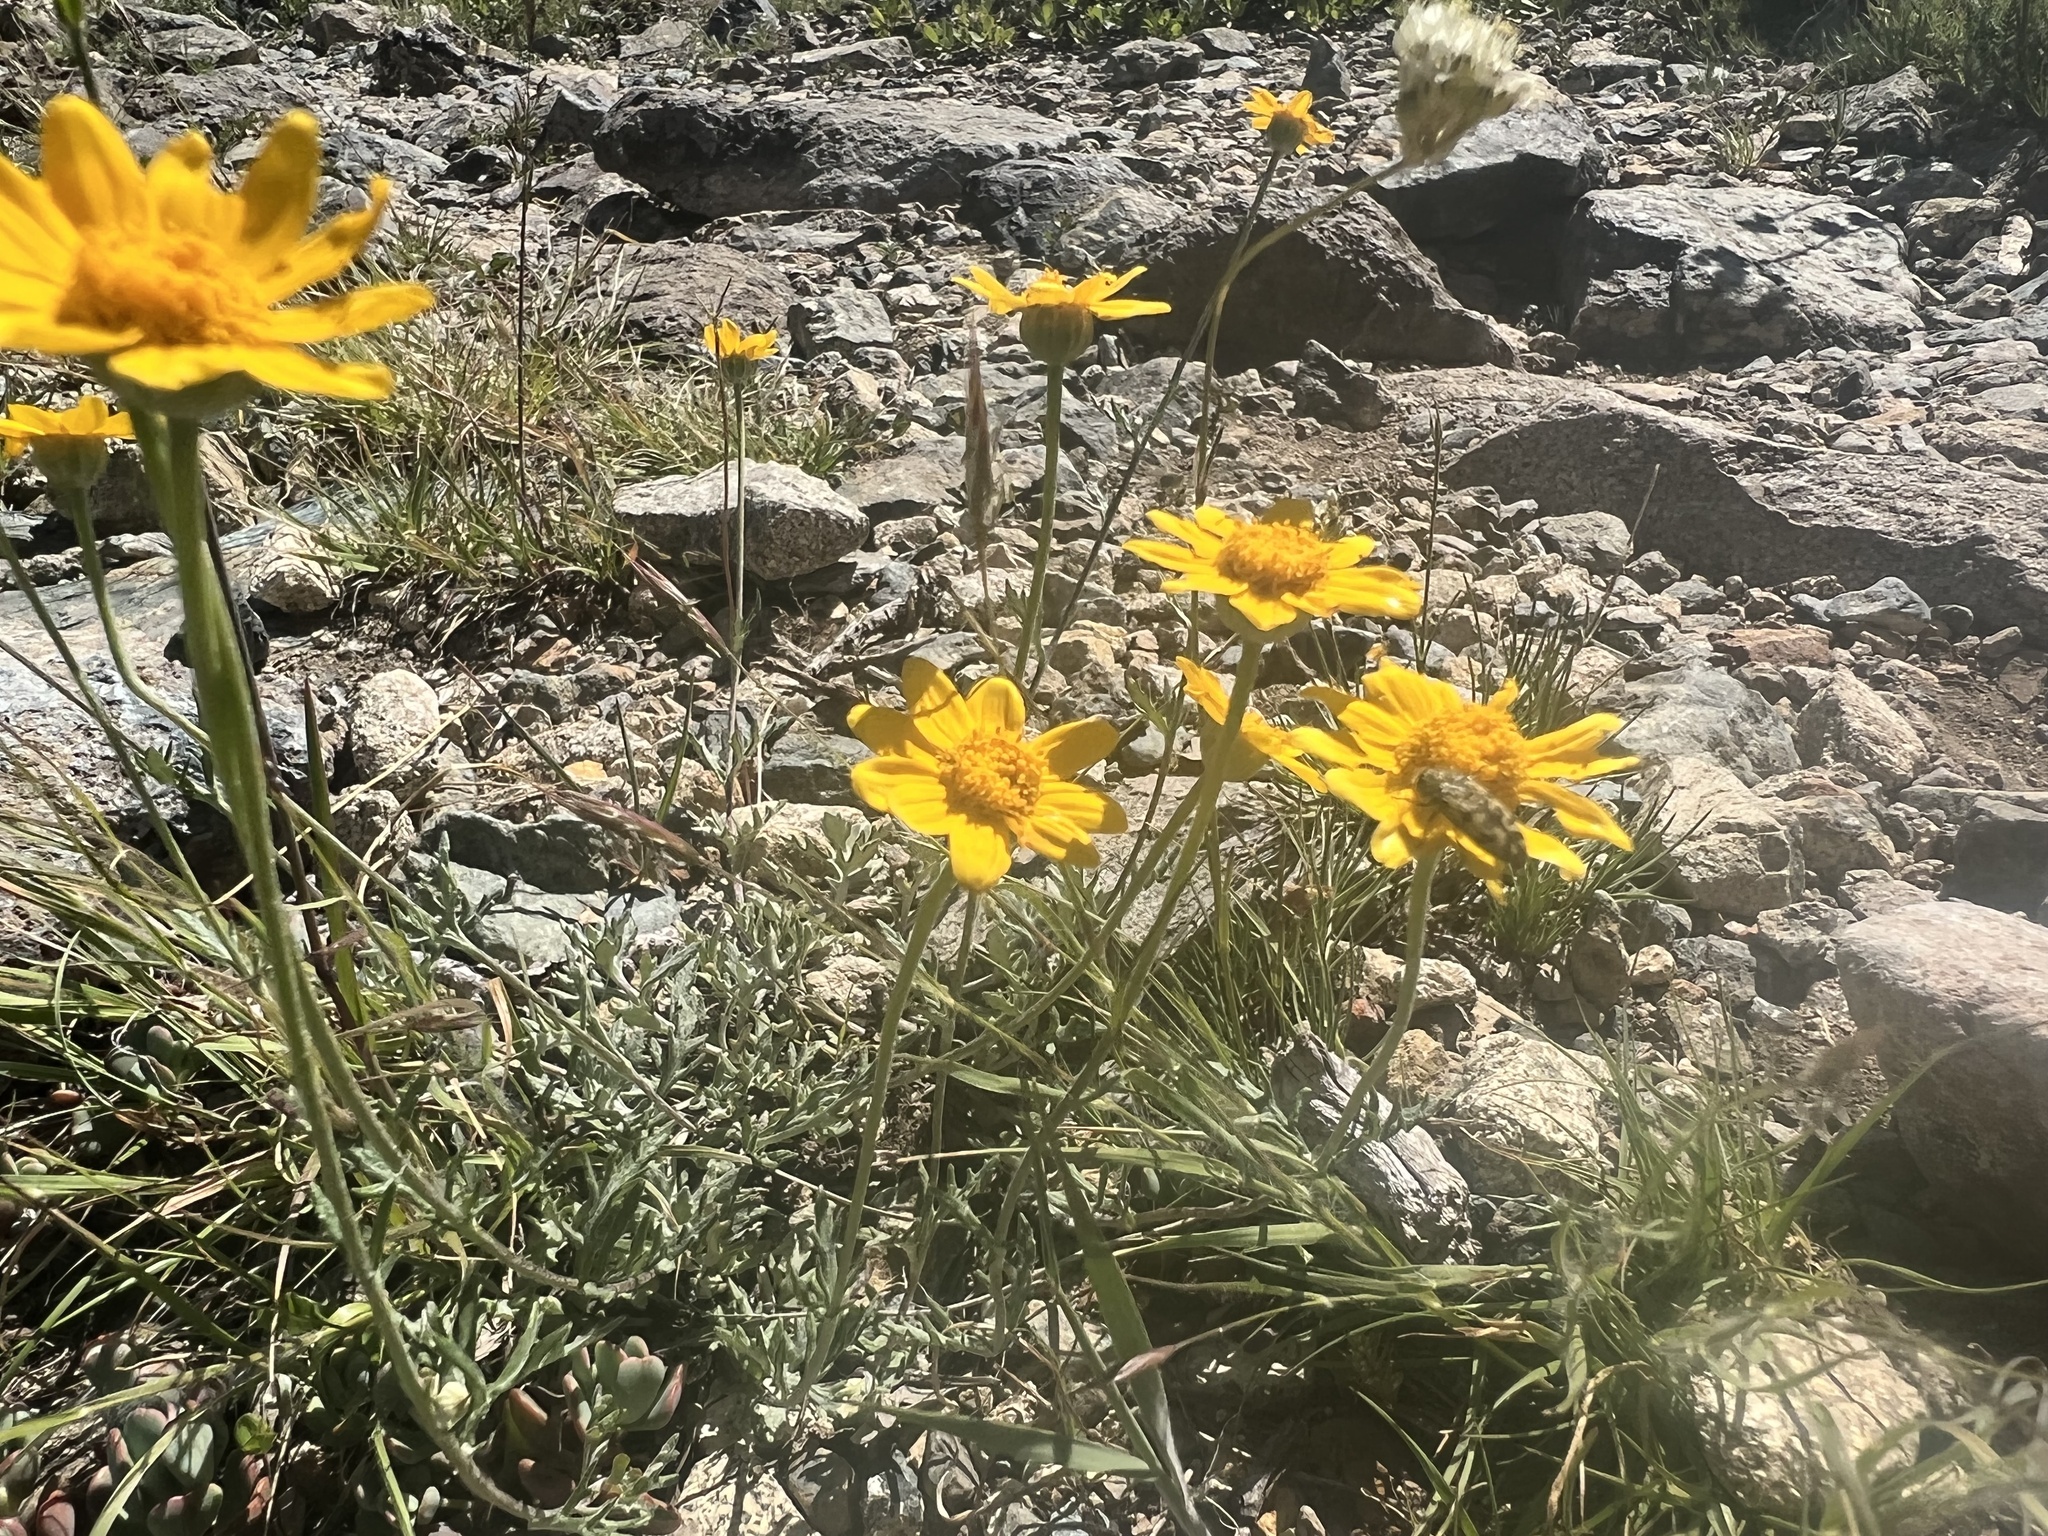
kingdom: Plantae
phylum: Tracheophyta
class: Magnoliopsida
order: Asterales
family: Asteraceae
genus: Eriophyllum
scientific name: Eriophyllum lanatum
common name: Common woolly-sunflower
